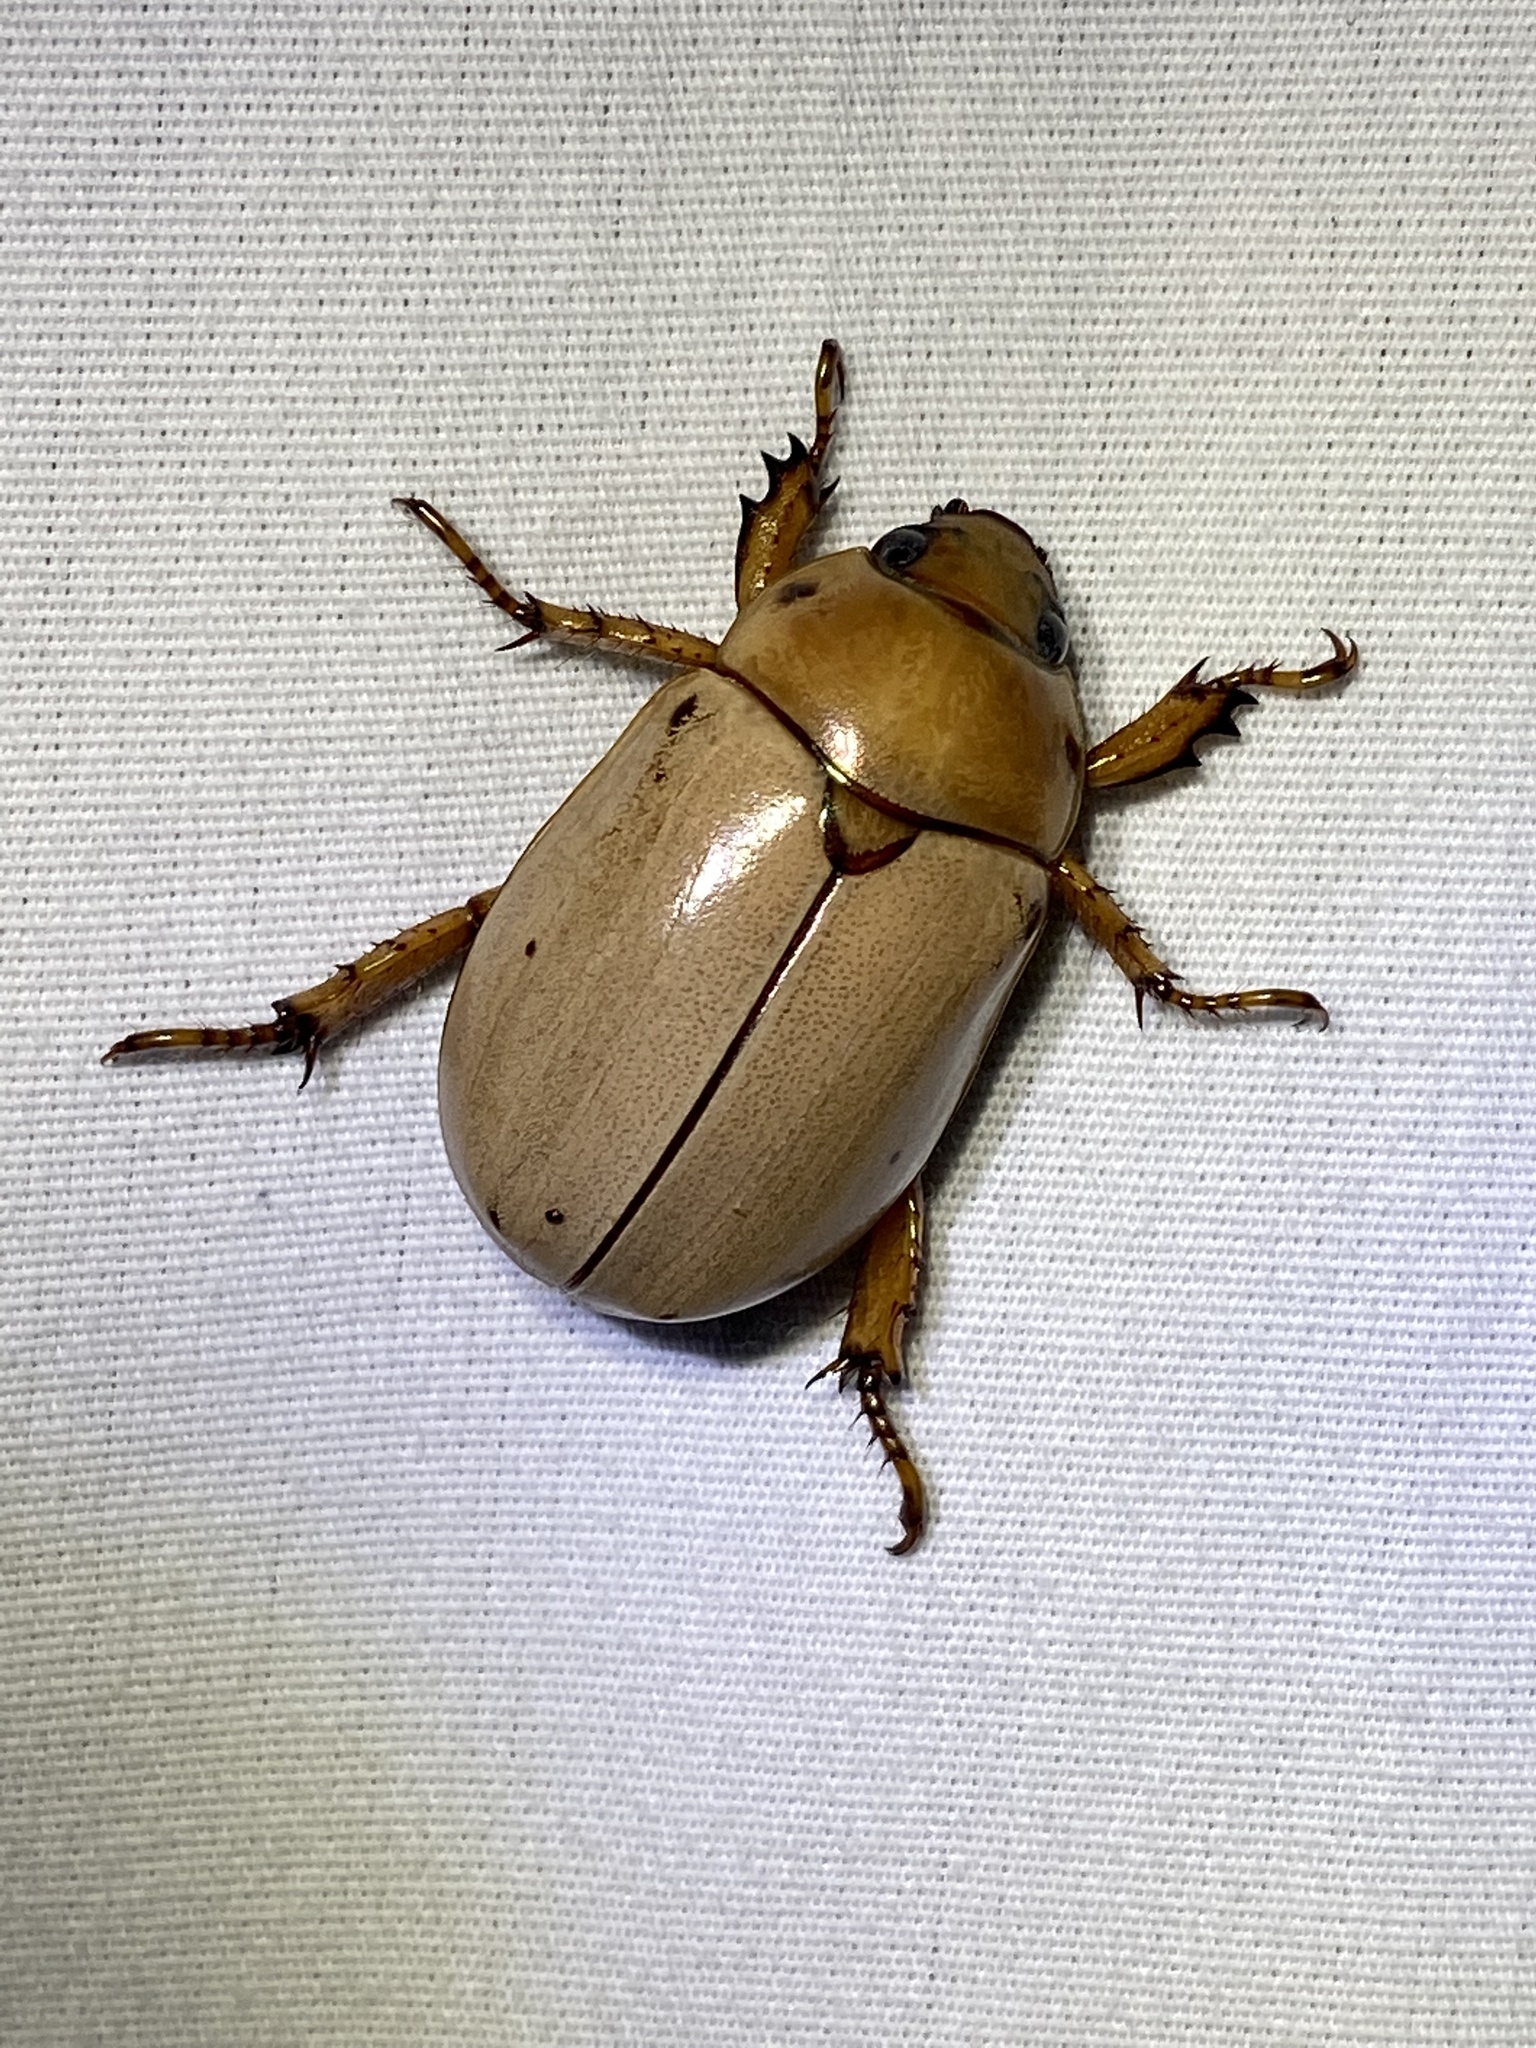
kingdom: Animalia
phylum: Arthropoda
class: Insecta
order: Coleoptera
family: Scarabaeidae
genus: Pelidnota
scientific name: Pelidnota punctata
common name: Grapevine beetle
